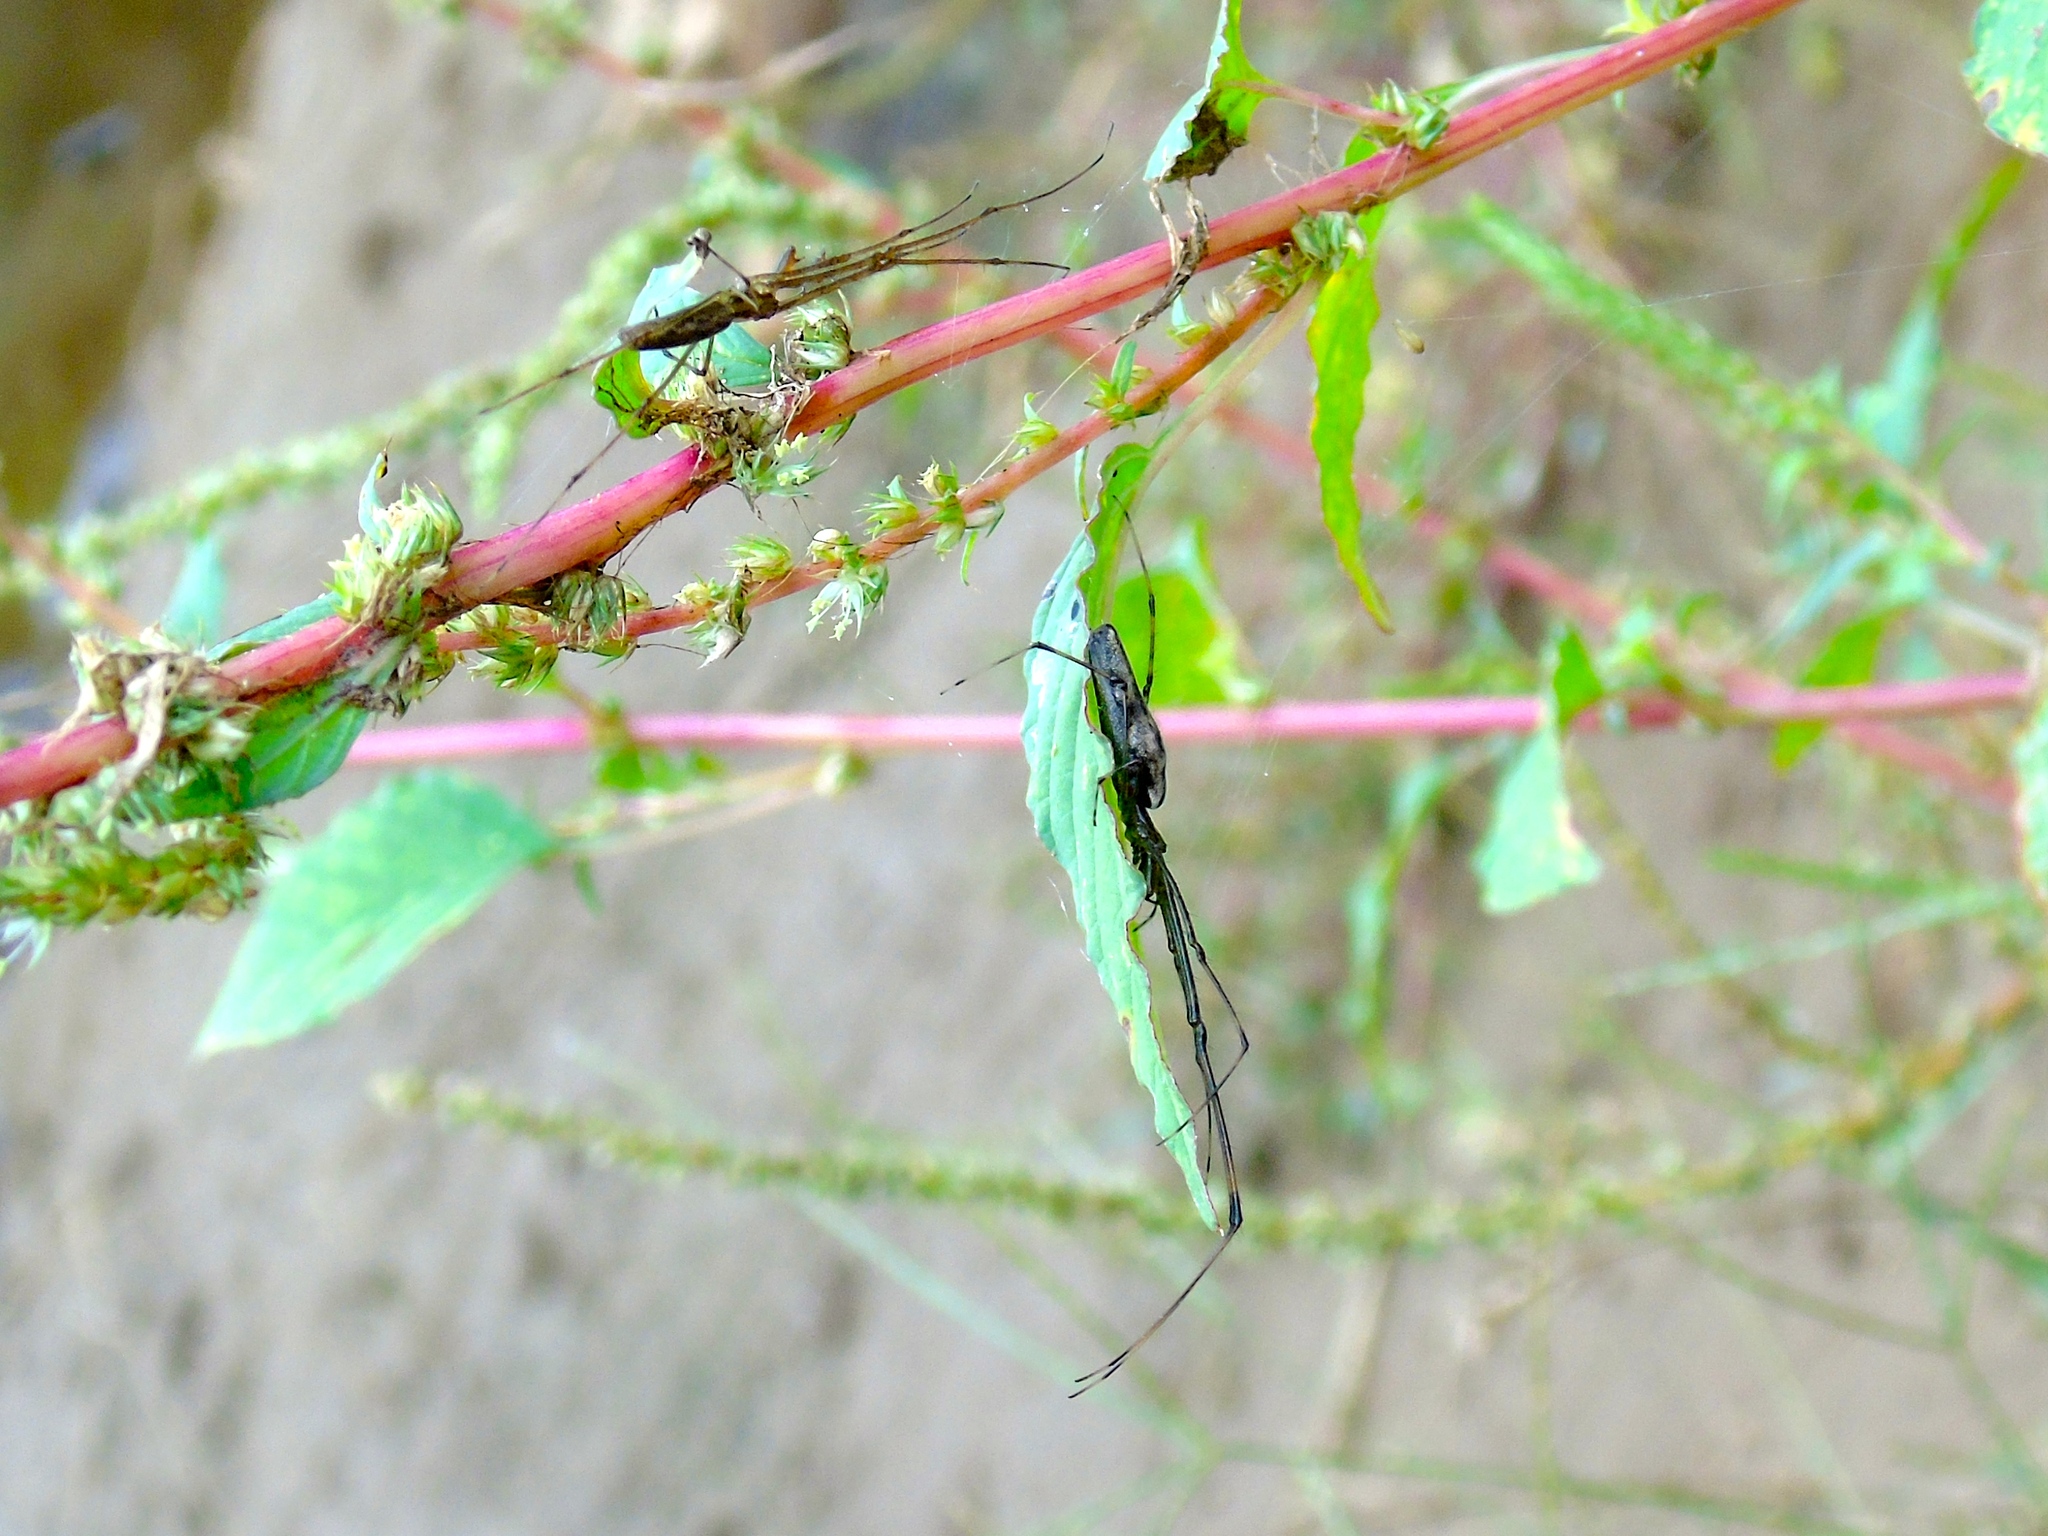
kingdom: Animalia
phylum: Arthropoda
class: Arachnida
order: Araneae
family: Tetragnathidae
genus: Tetragnatha
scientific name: Tetragnatha
